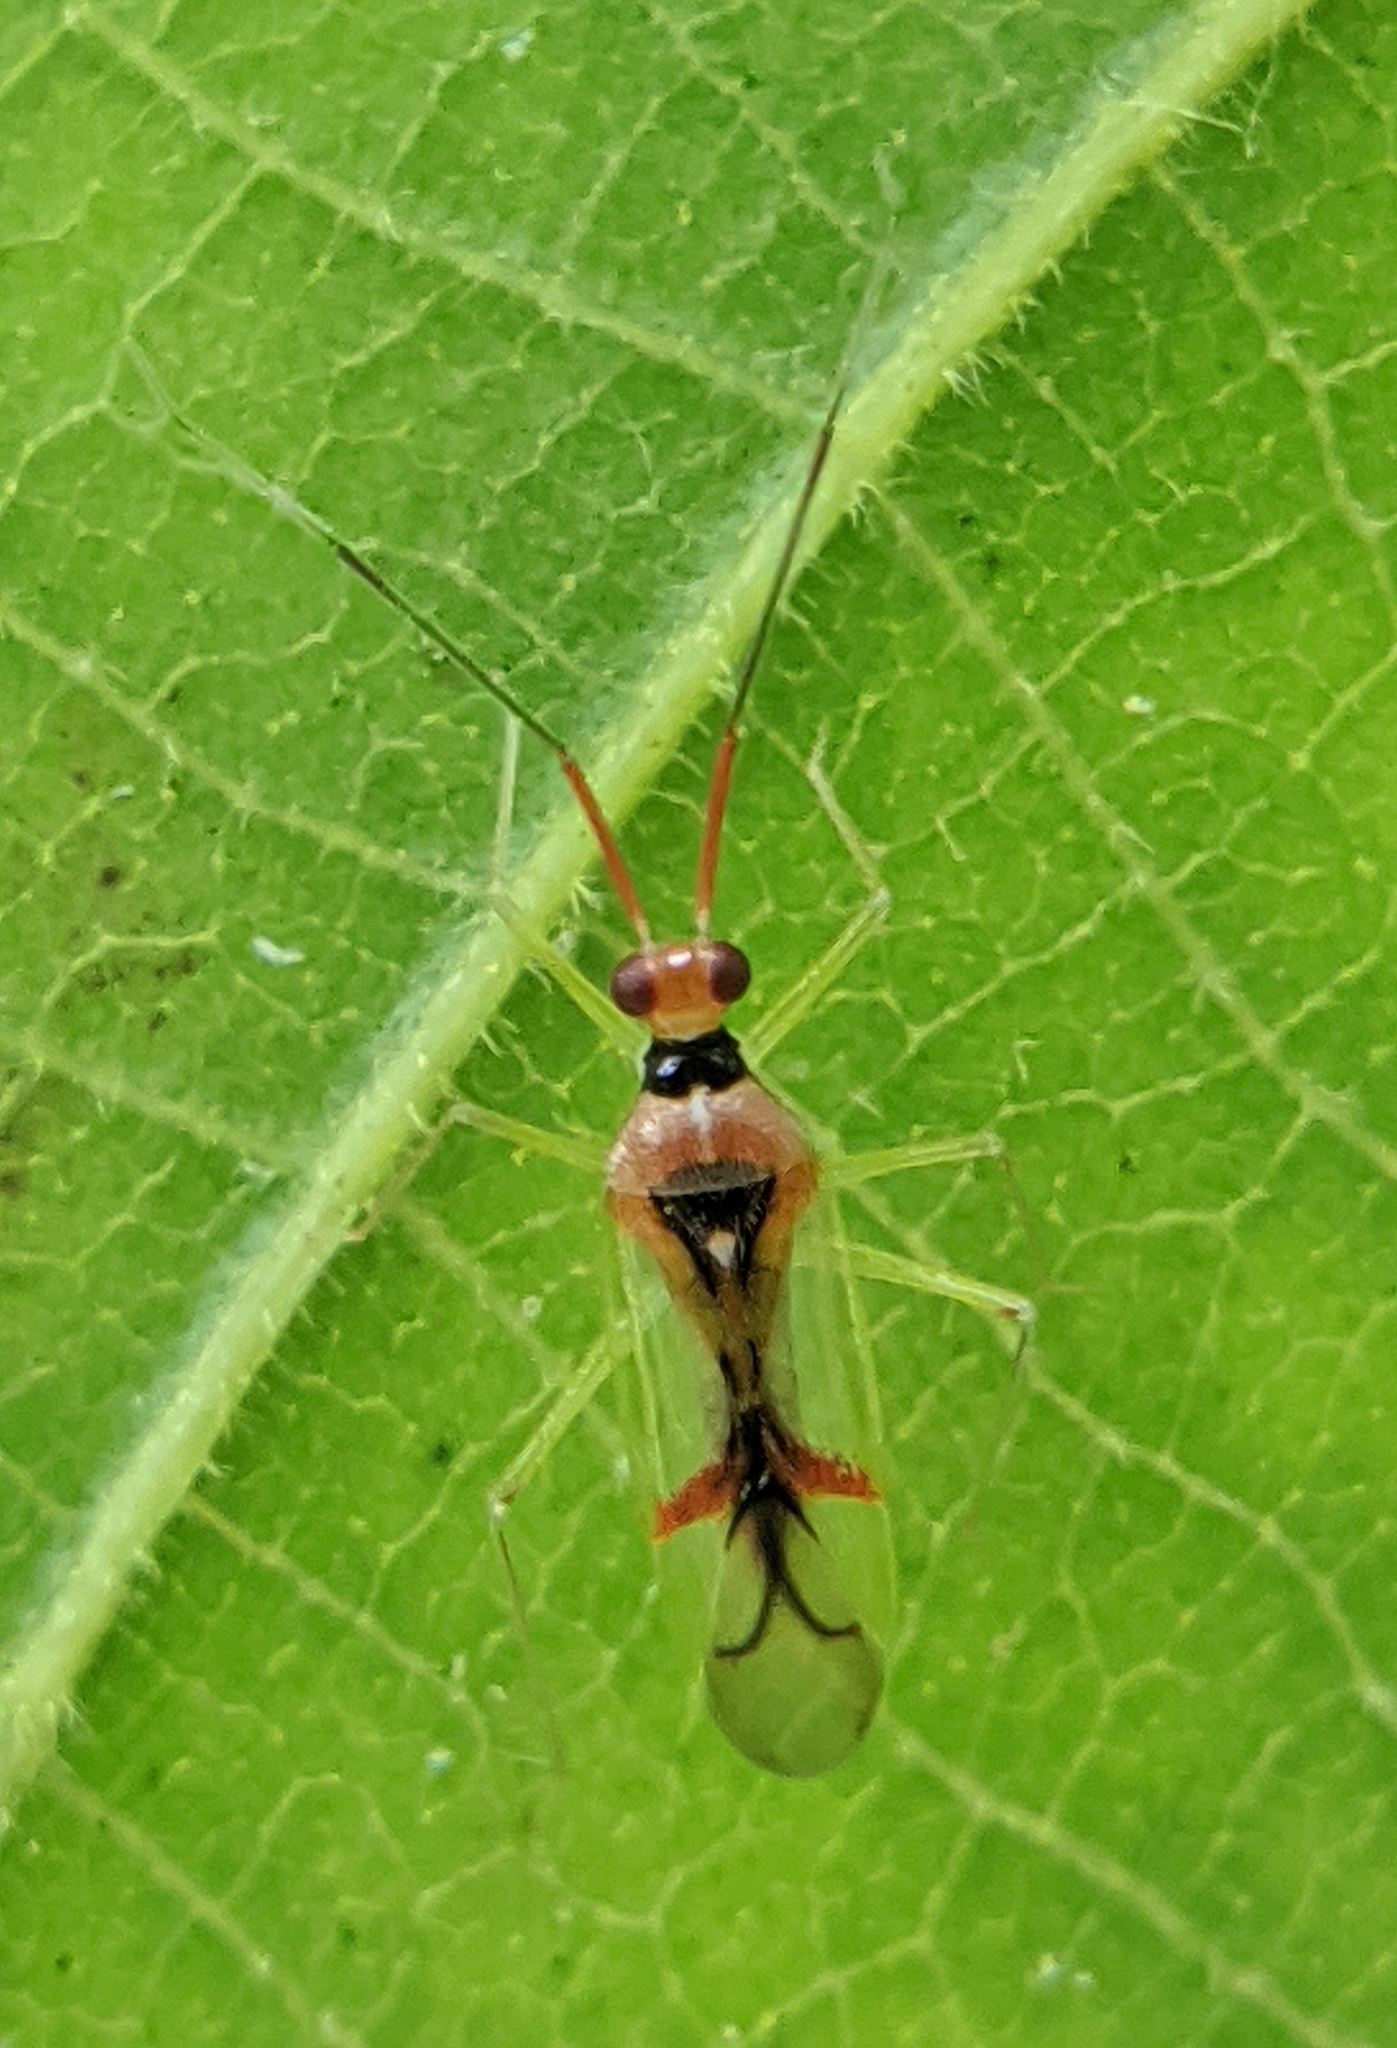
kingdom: Animalia
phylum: Arthropoda
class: Insecta
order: Hemiptera
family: Miridae
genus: Hyaliodes
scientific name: Hyaliodes harti
